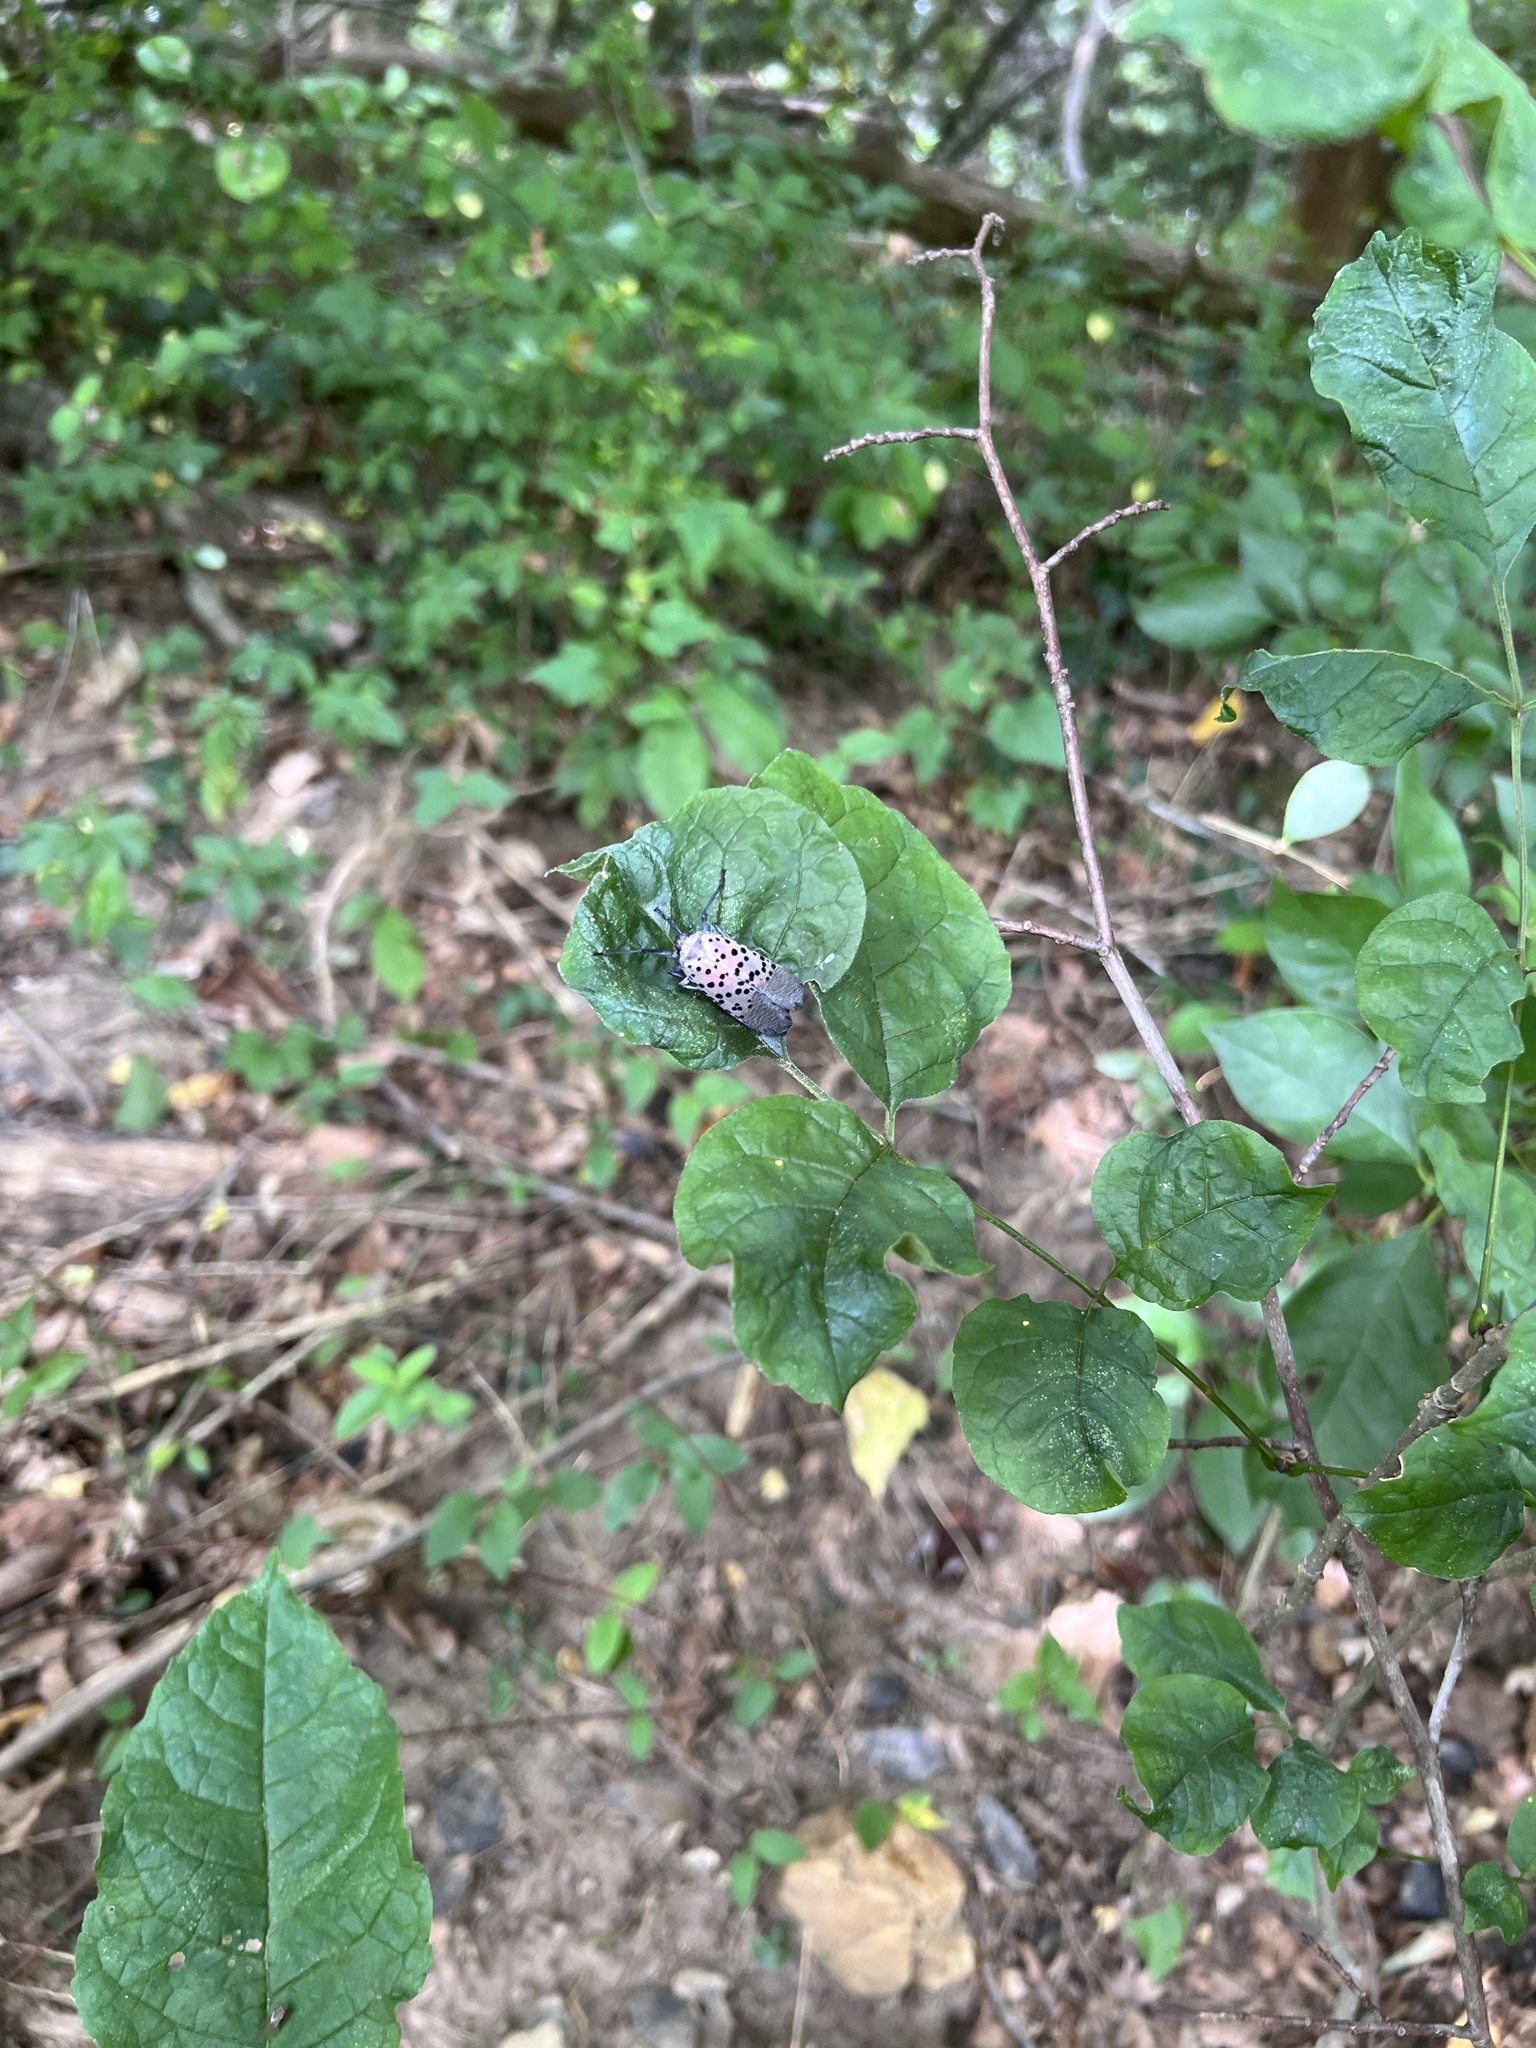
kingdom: Animalia
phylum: Arthropoda
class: Insecta
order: Hemiptera
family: Fulgoridae
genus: Lycorma
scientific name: Lycorma delicatula
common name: Spotted lanternfly
